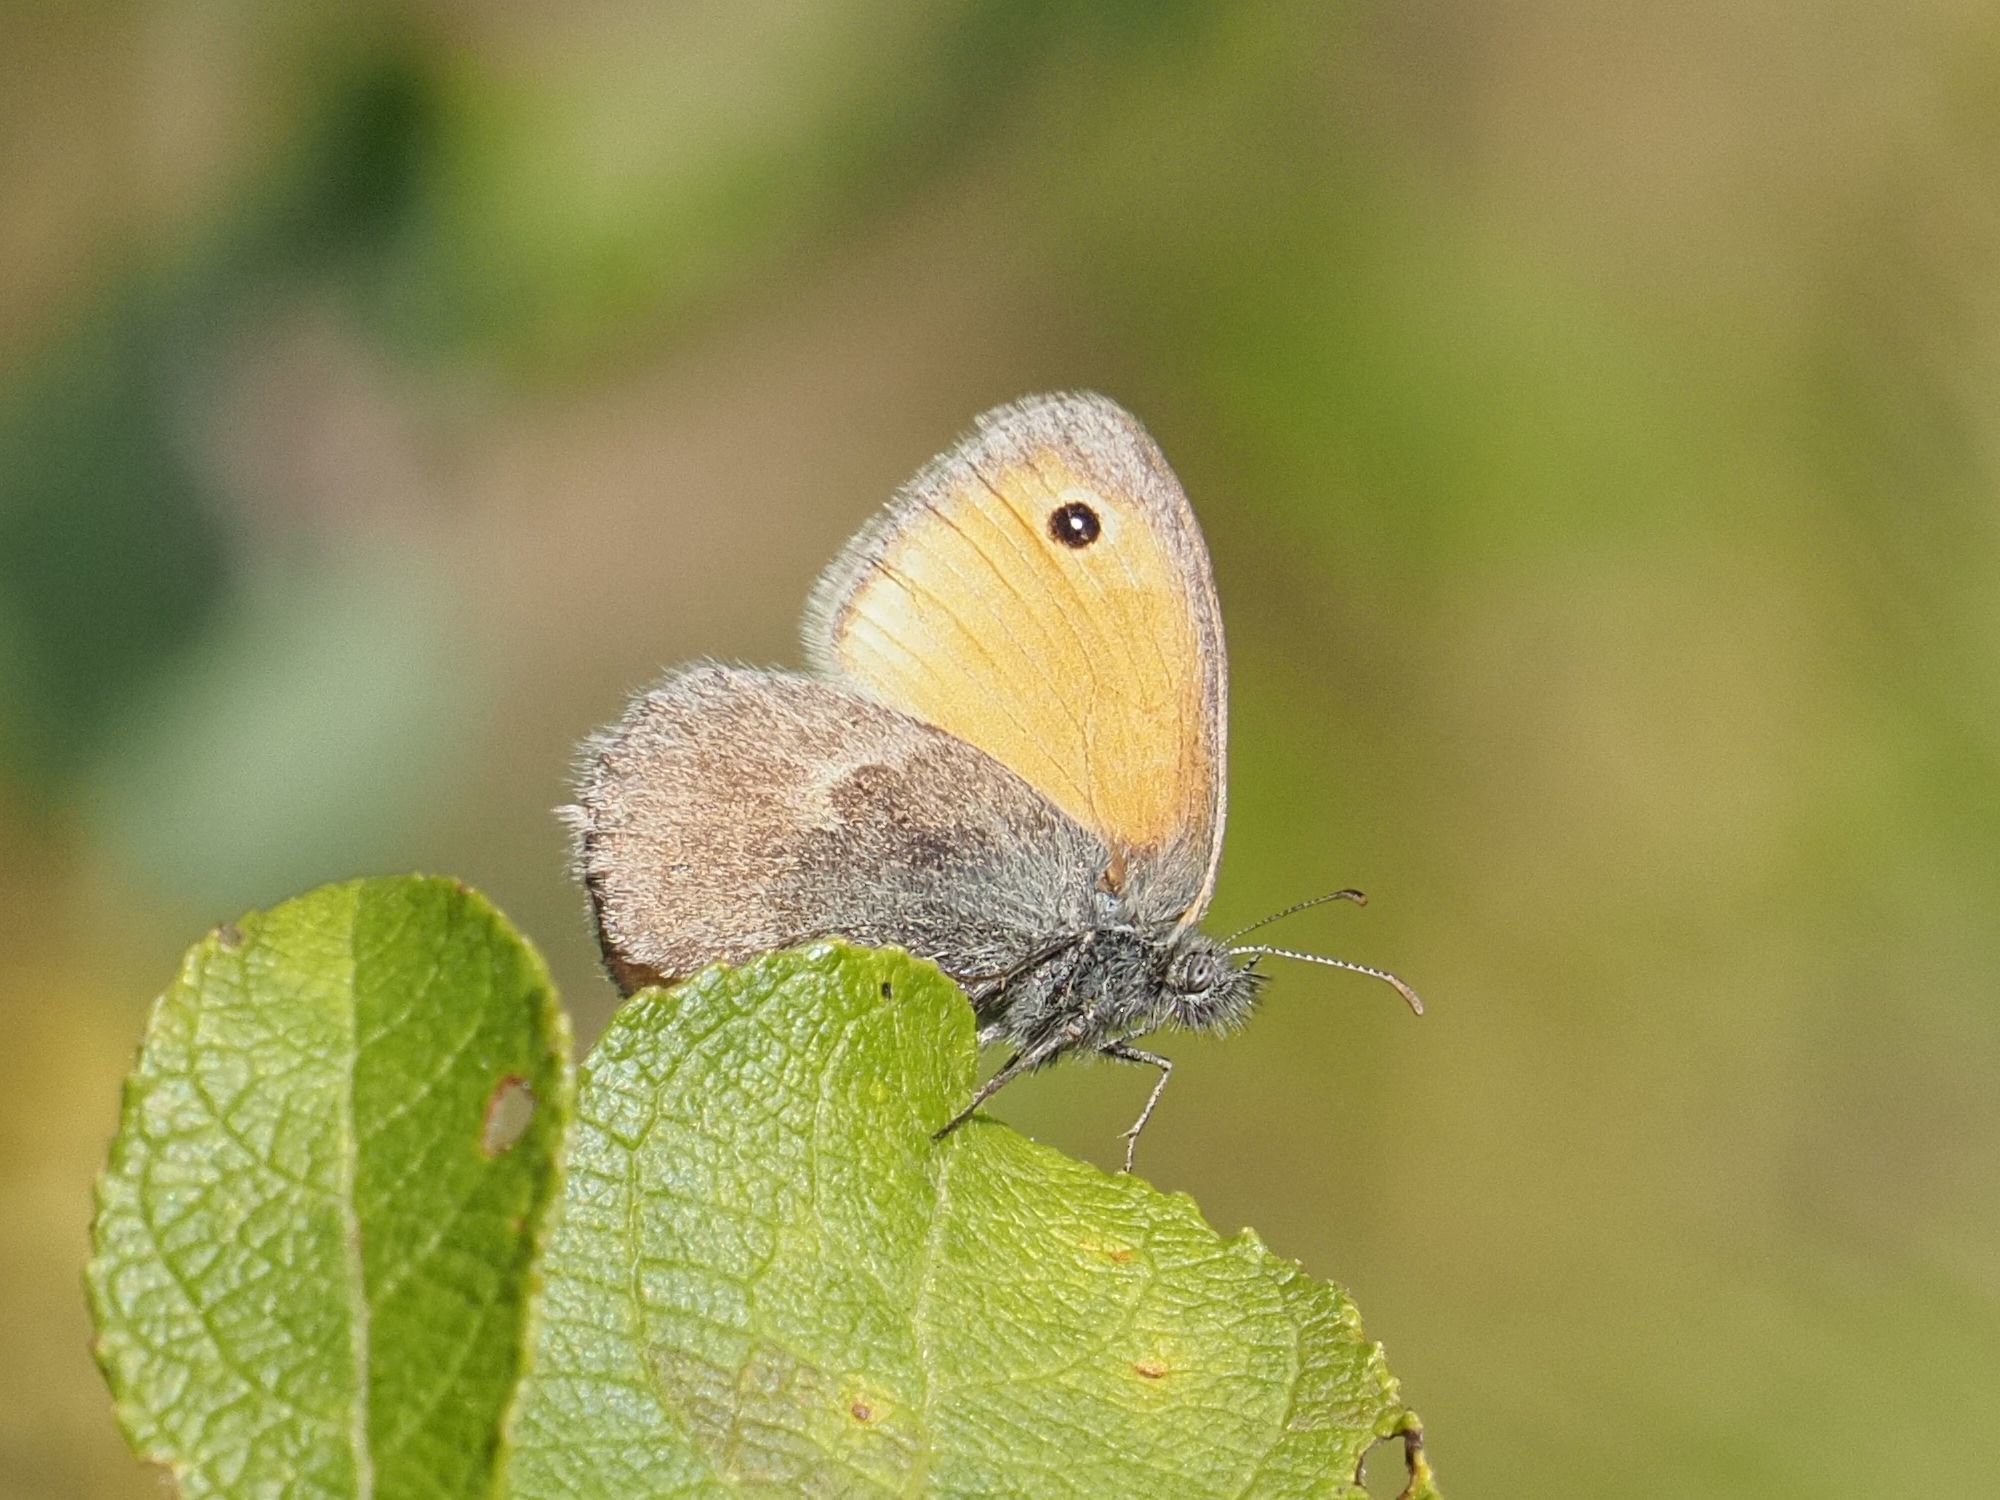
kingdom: Animalia
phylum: Arthropoda
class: Insecta
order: Lepidoptera
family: Nymphalidae
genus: Coenonympha
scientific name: Coenonympha pamphilus
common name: Small heath
